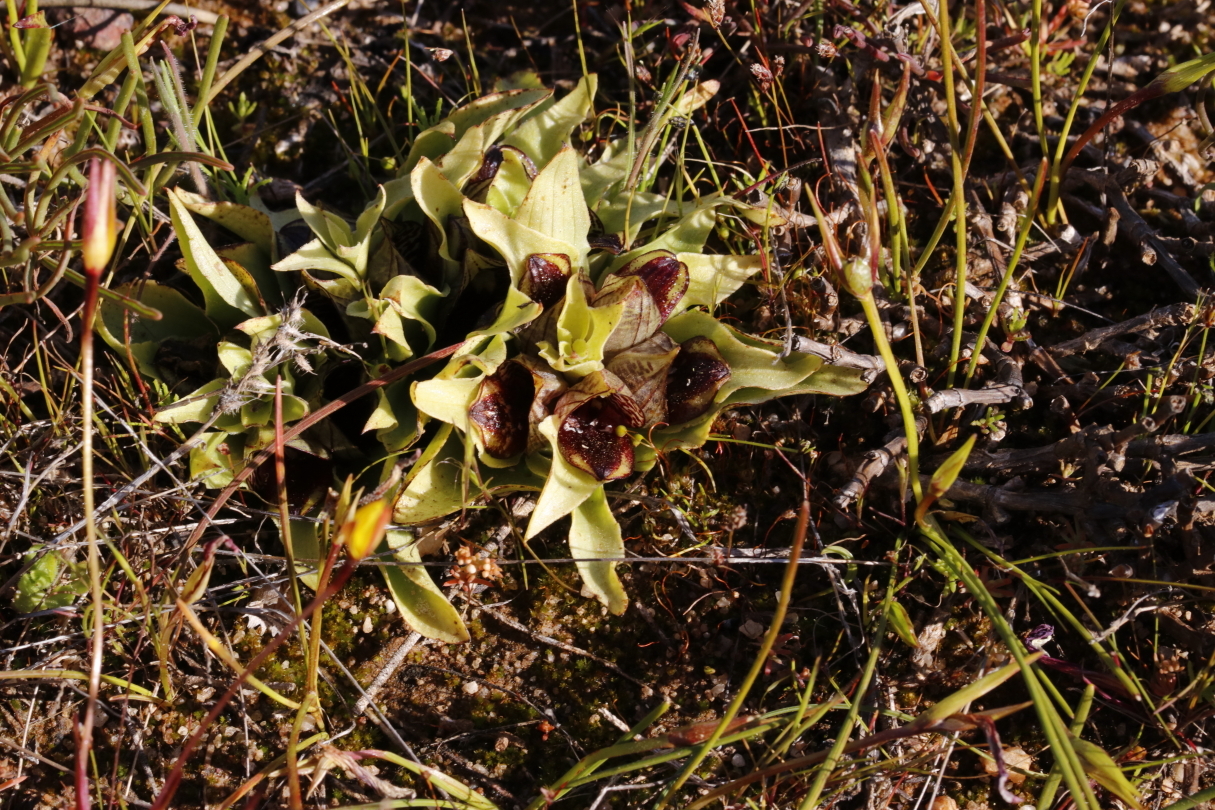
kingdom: Plantae
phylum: Tracheophyta
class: Liliopsida
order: Asparagales
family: Orchidaceae
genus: Satyrium
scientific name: Satyrium pumilum
